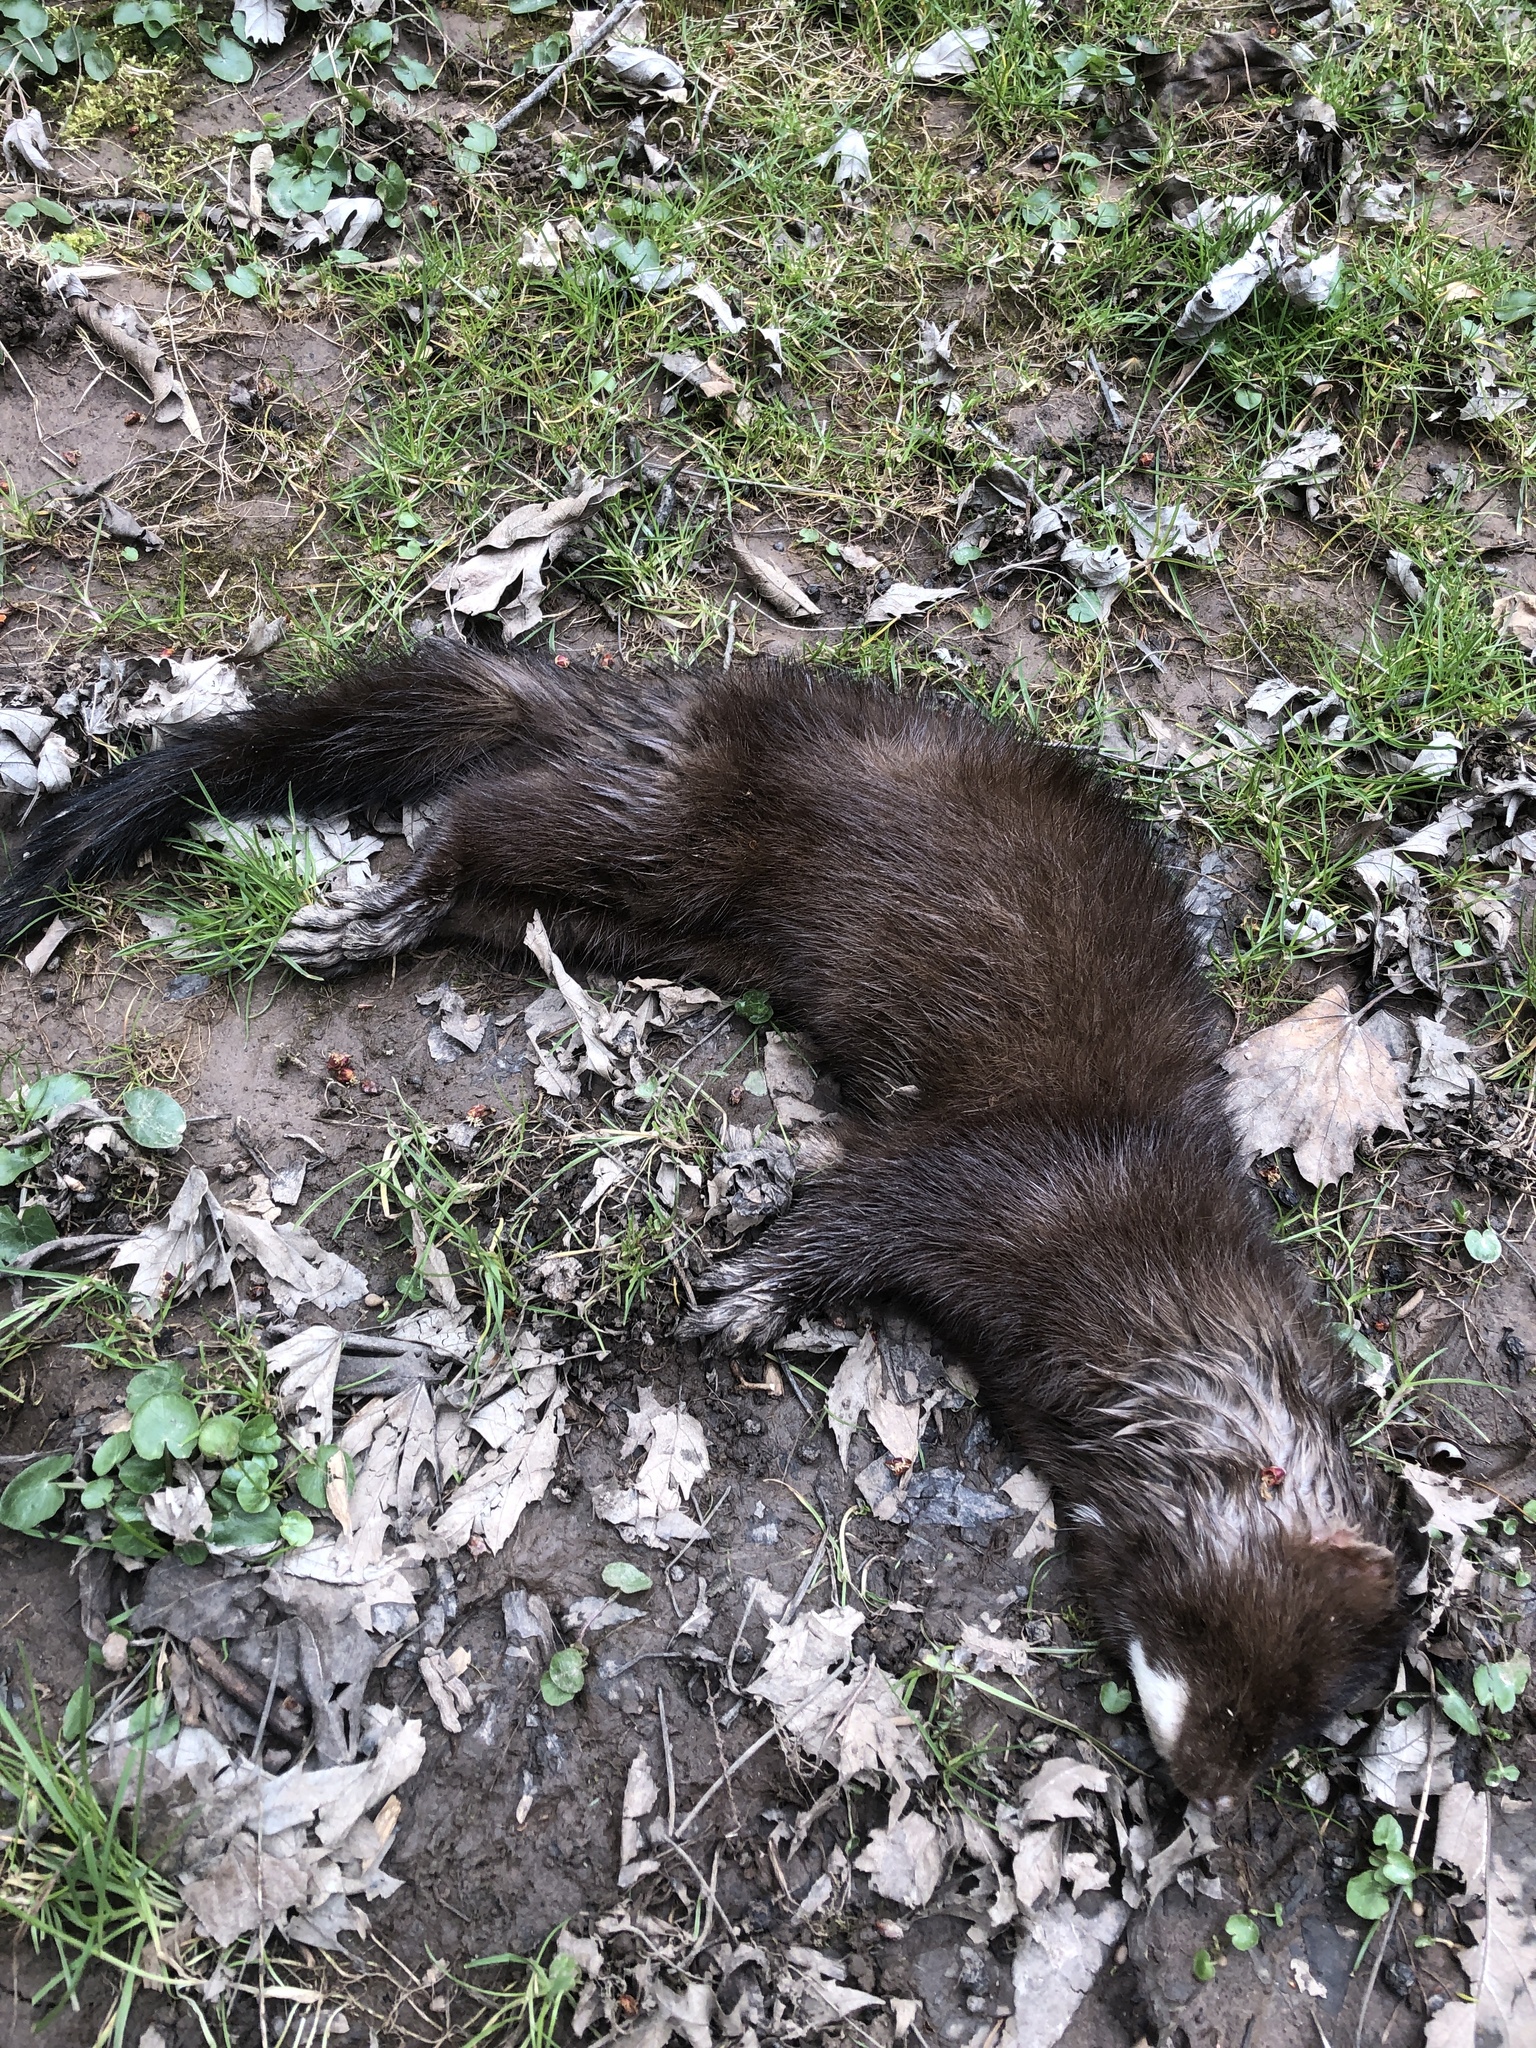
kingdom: Animalia
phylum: Chordata
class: Mammalia
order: Carnivora
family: Mustelidae
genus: Mustela
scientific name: Mustela
